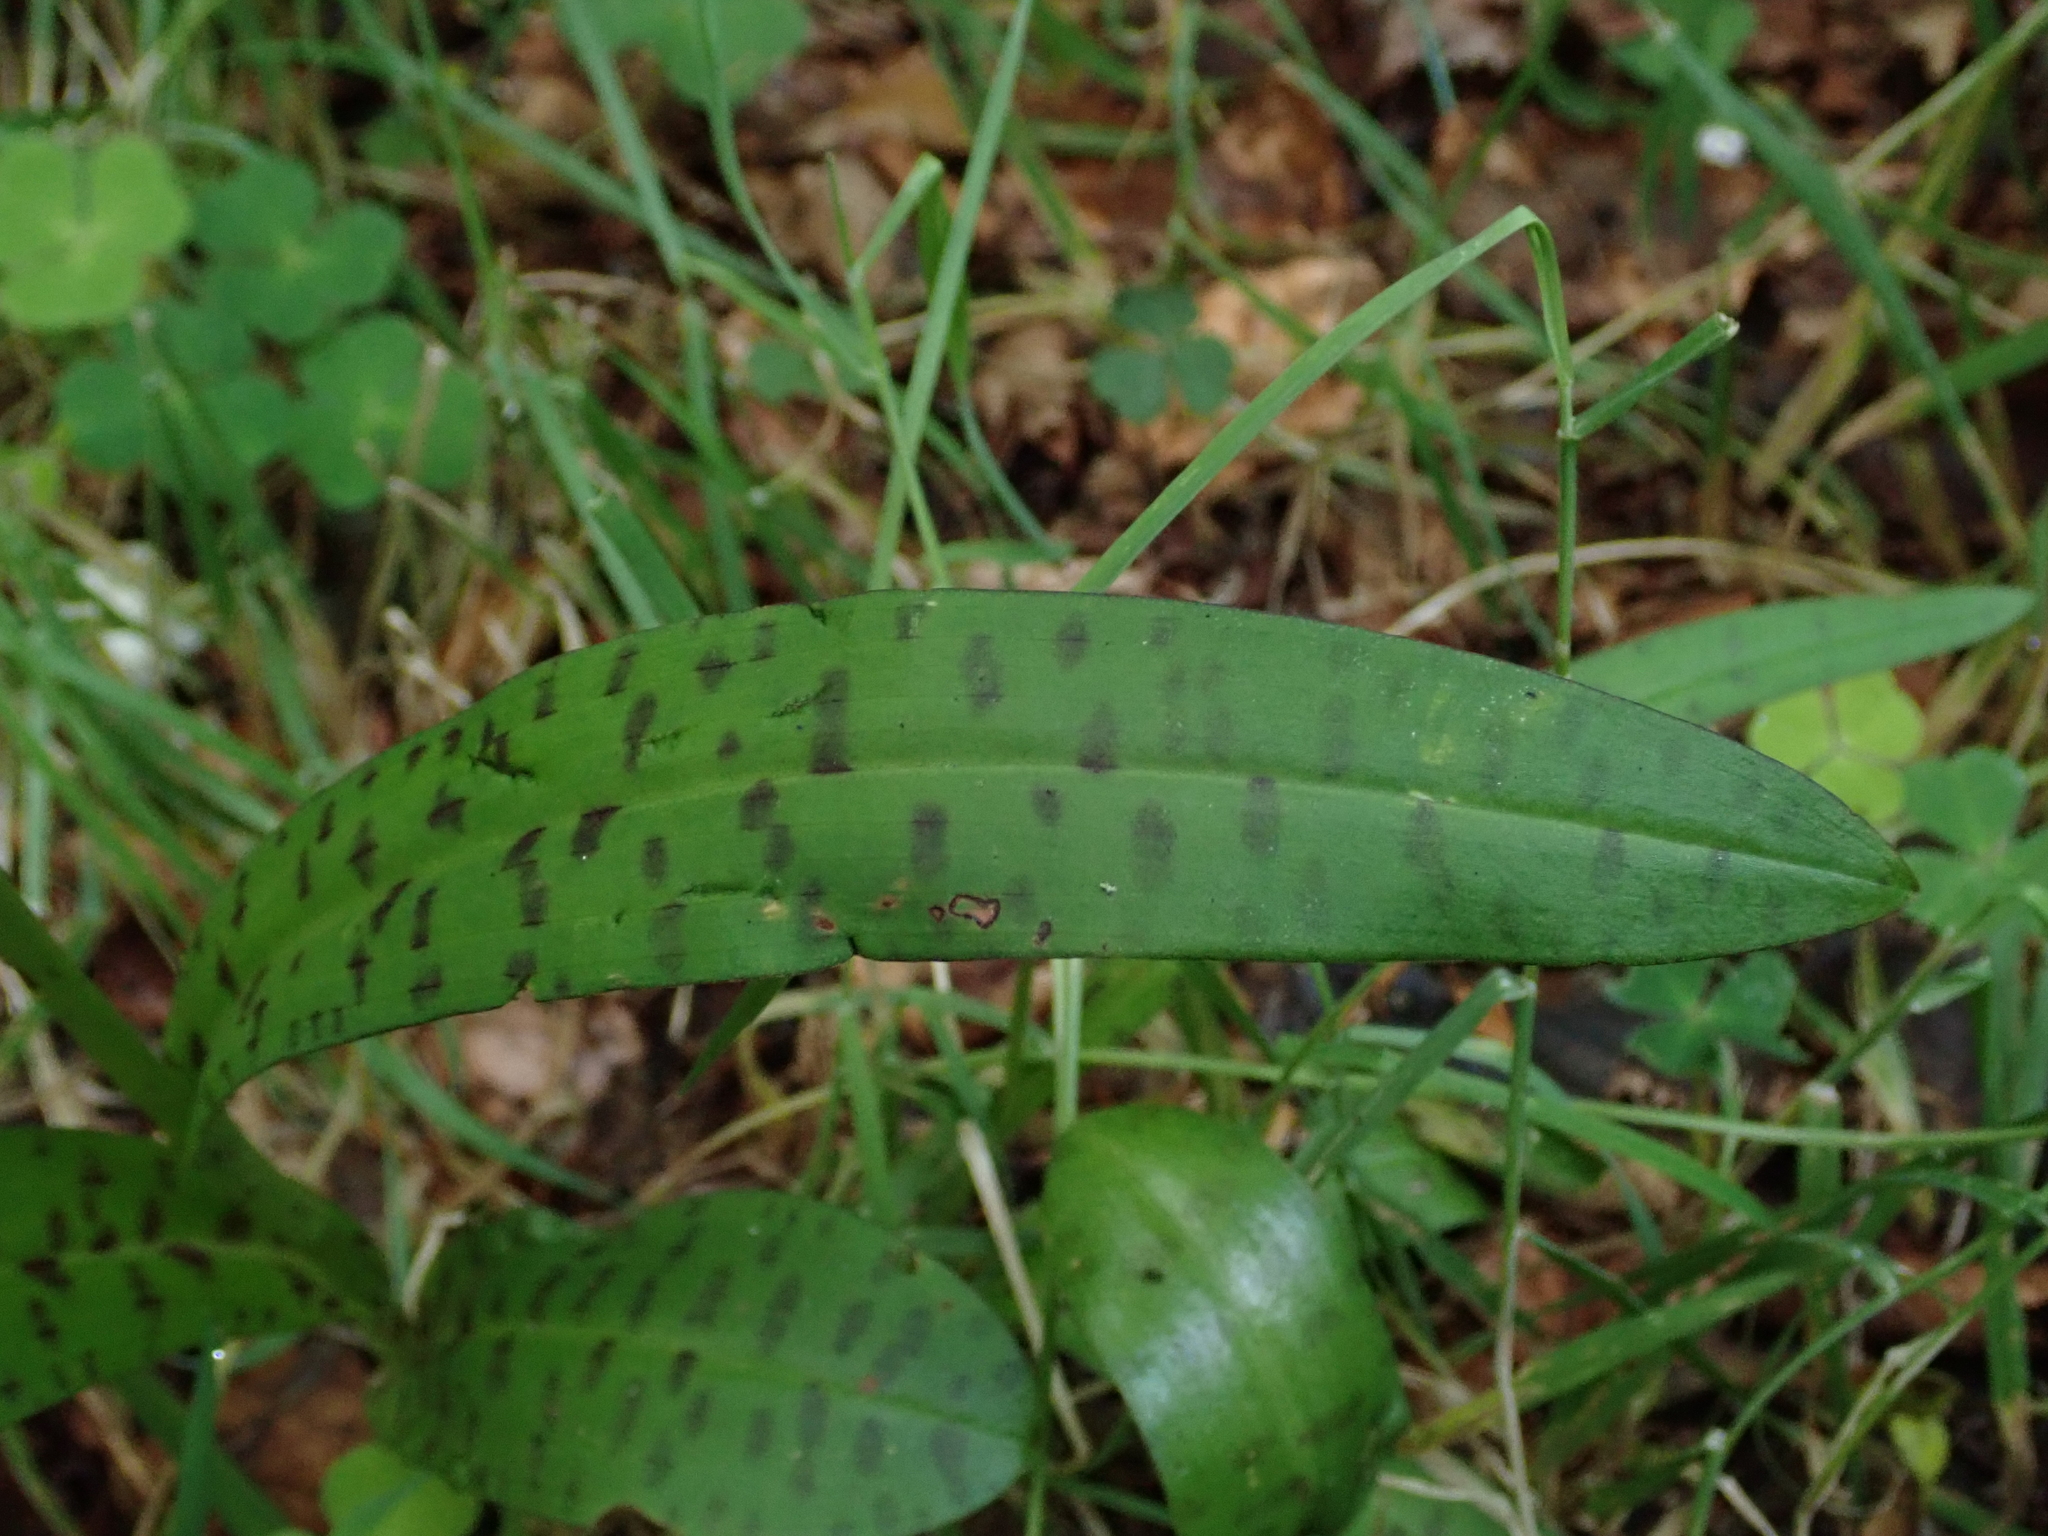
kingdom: Plantae
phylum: Tracheophyta
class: Liliopsida
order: Asparagales
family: Orchidaceae
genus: Dactylorhiza
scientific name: Dactylorhiza maculata
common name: Heath spotted-orchid
